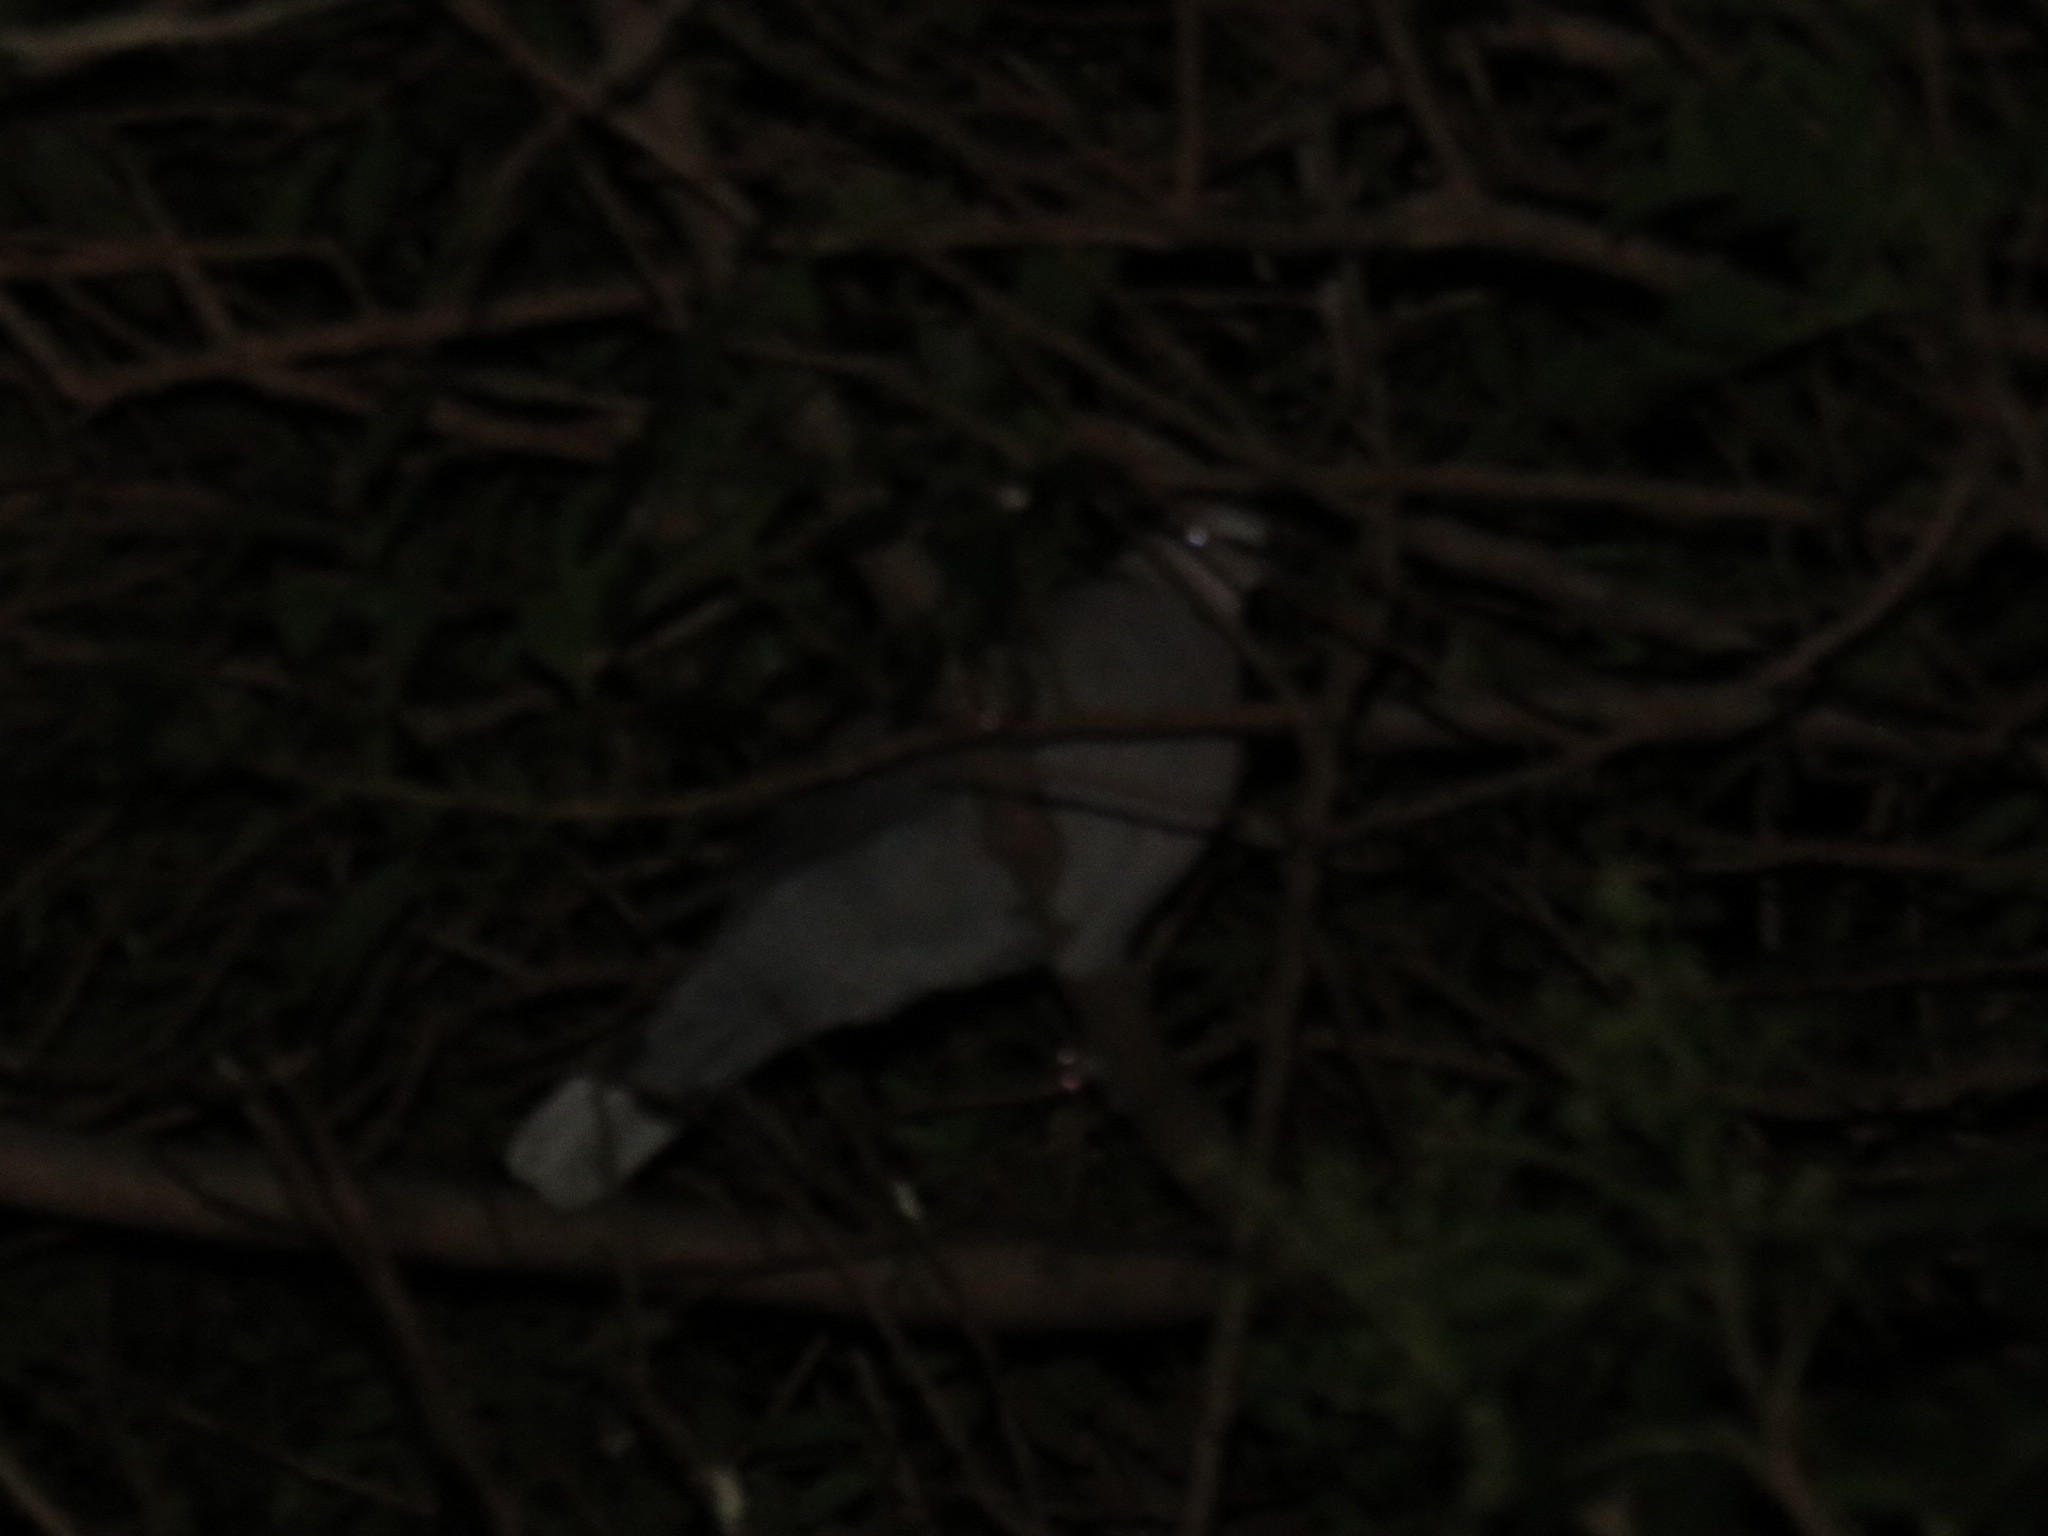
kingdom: Animalia
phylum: Chordata
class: Aves
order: Columbiformes
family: Columbidae
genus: Streptopelia
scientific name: Streptopelia semitorquata
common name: Red-eyed dove
